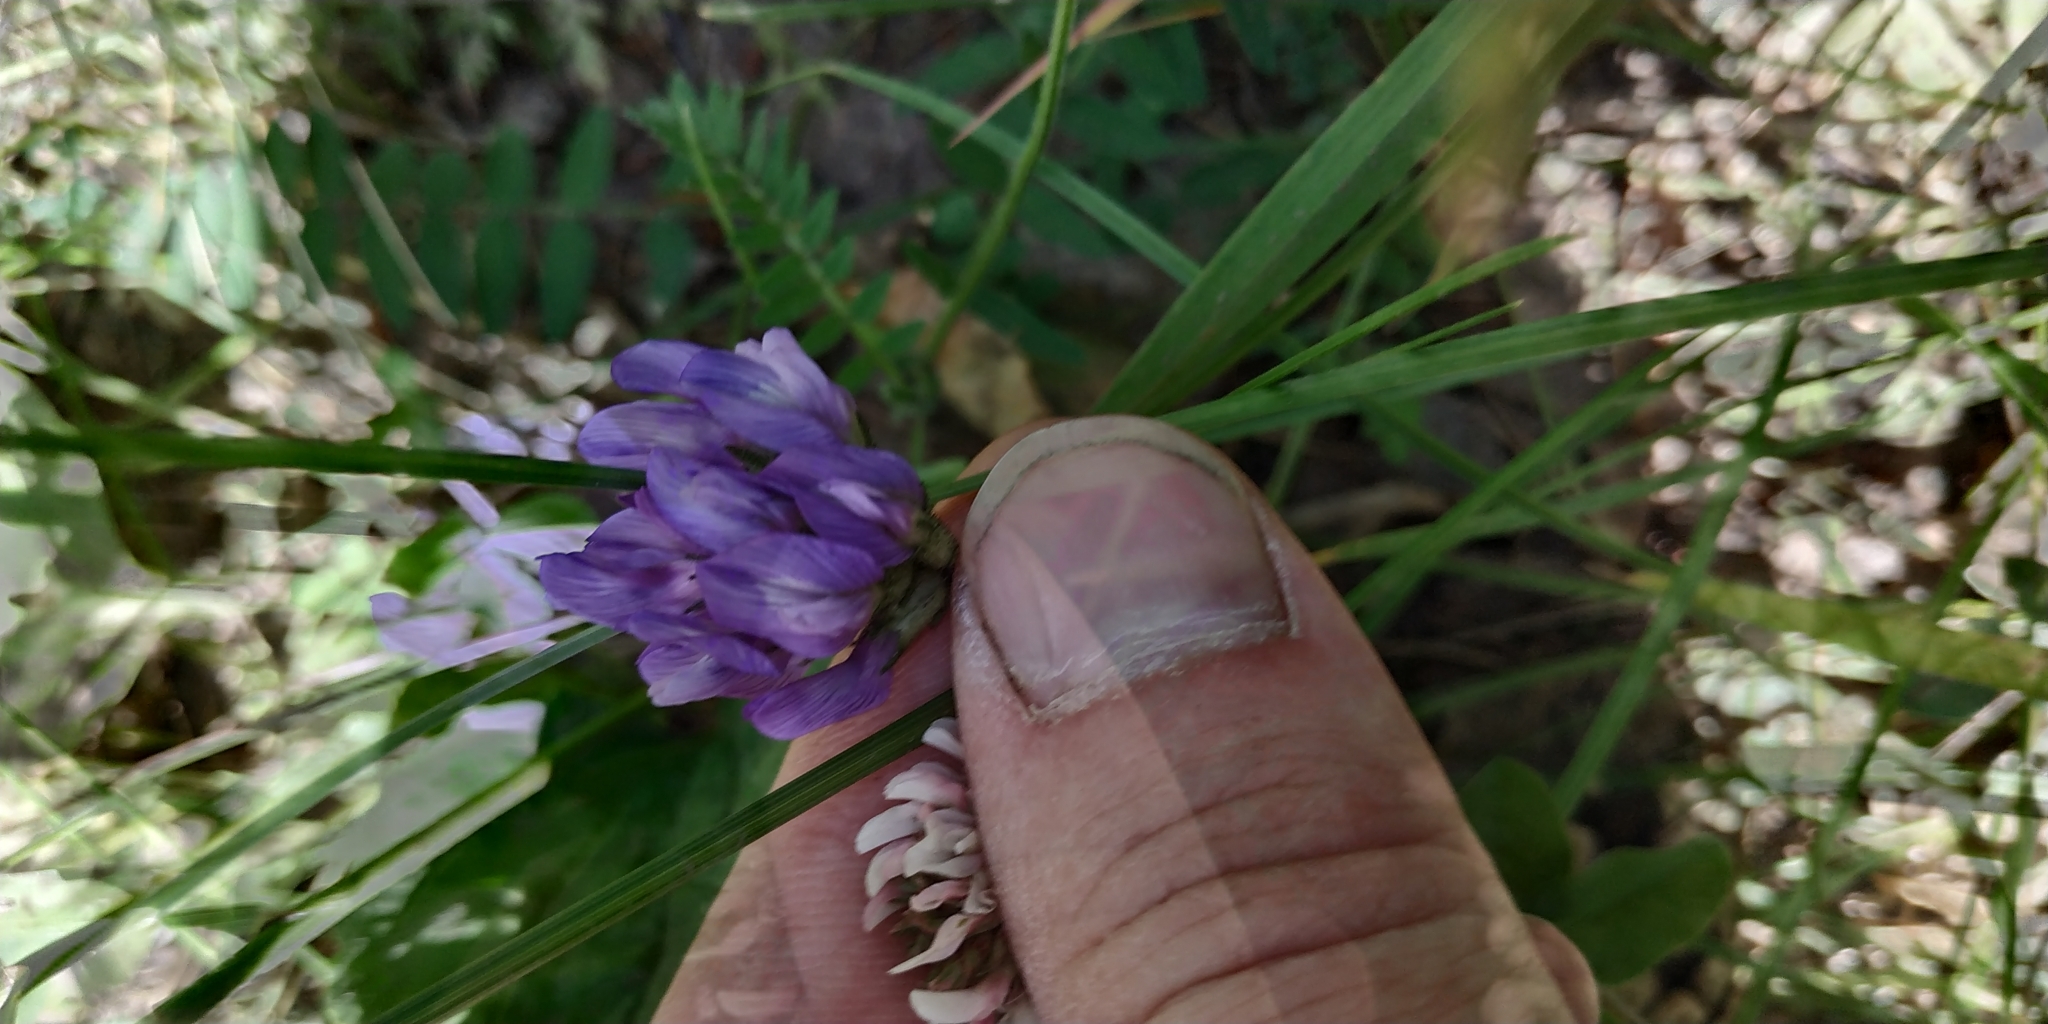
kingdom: Plantae
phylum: Tracheophyta
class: Magnoliopsida
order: Fabales
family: Fabaceae
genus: Astragalus
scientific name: Astragalus danicus
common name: Purple milk-vetch
